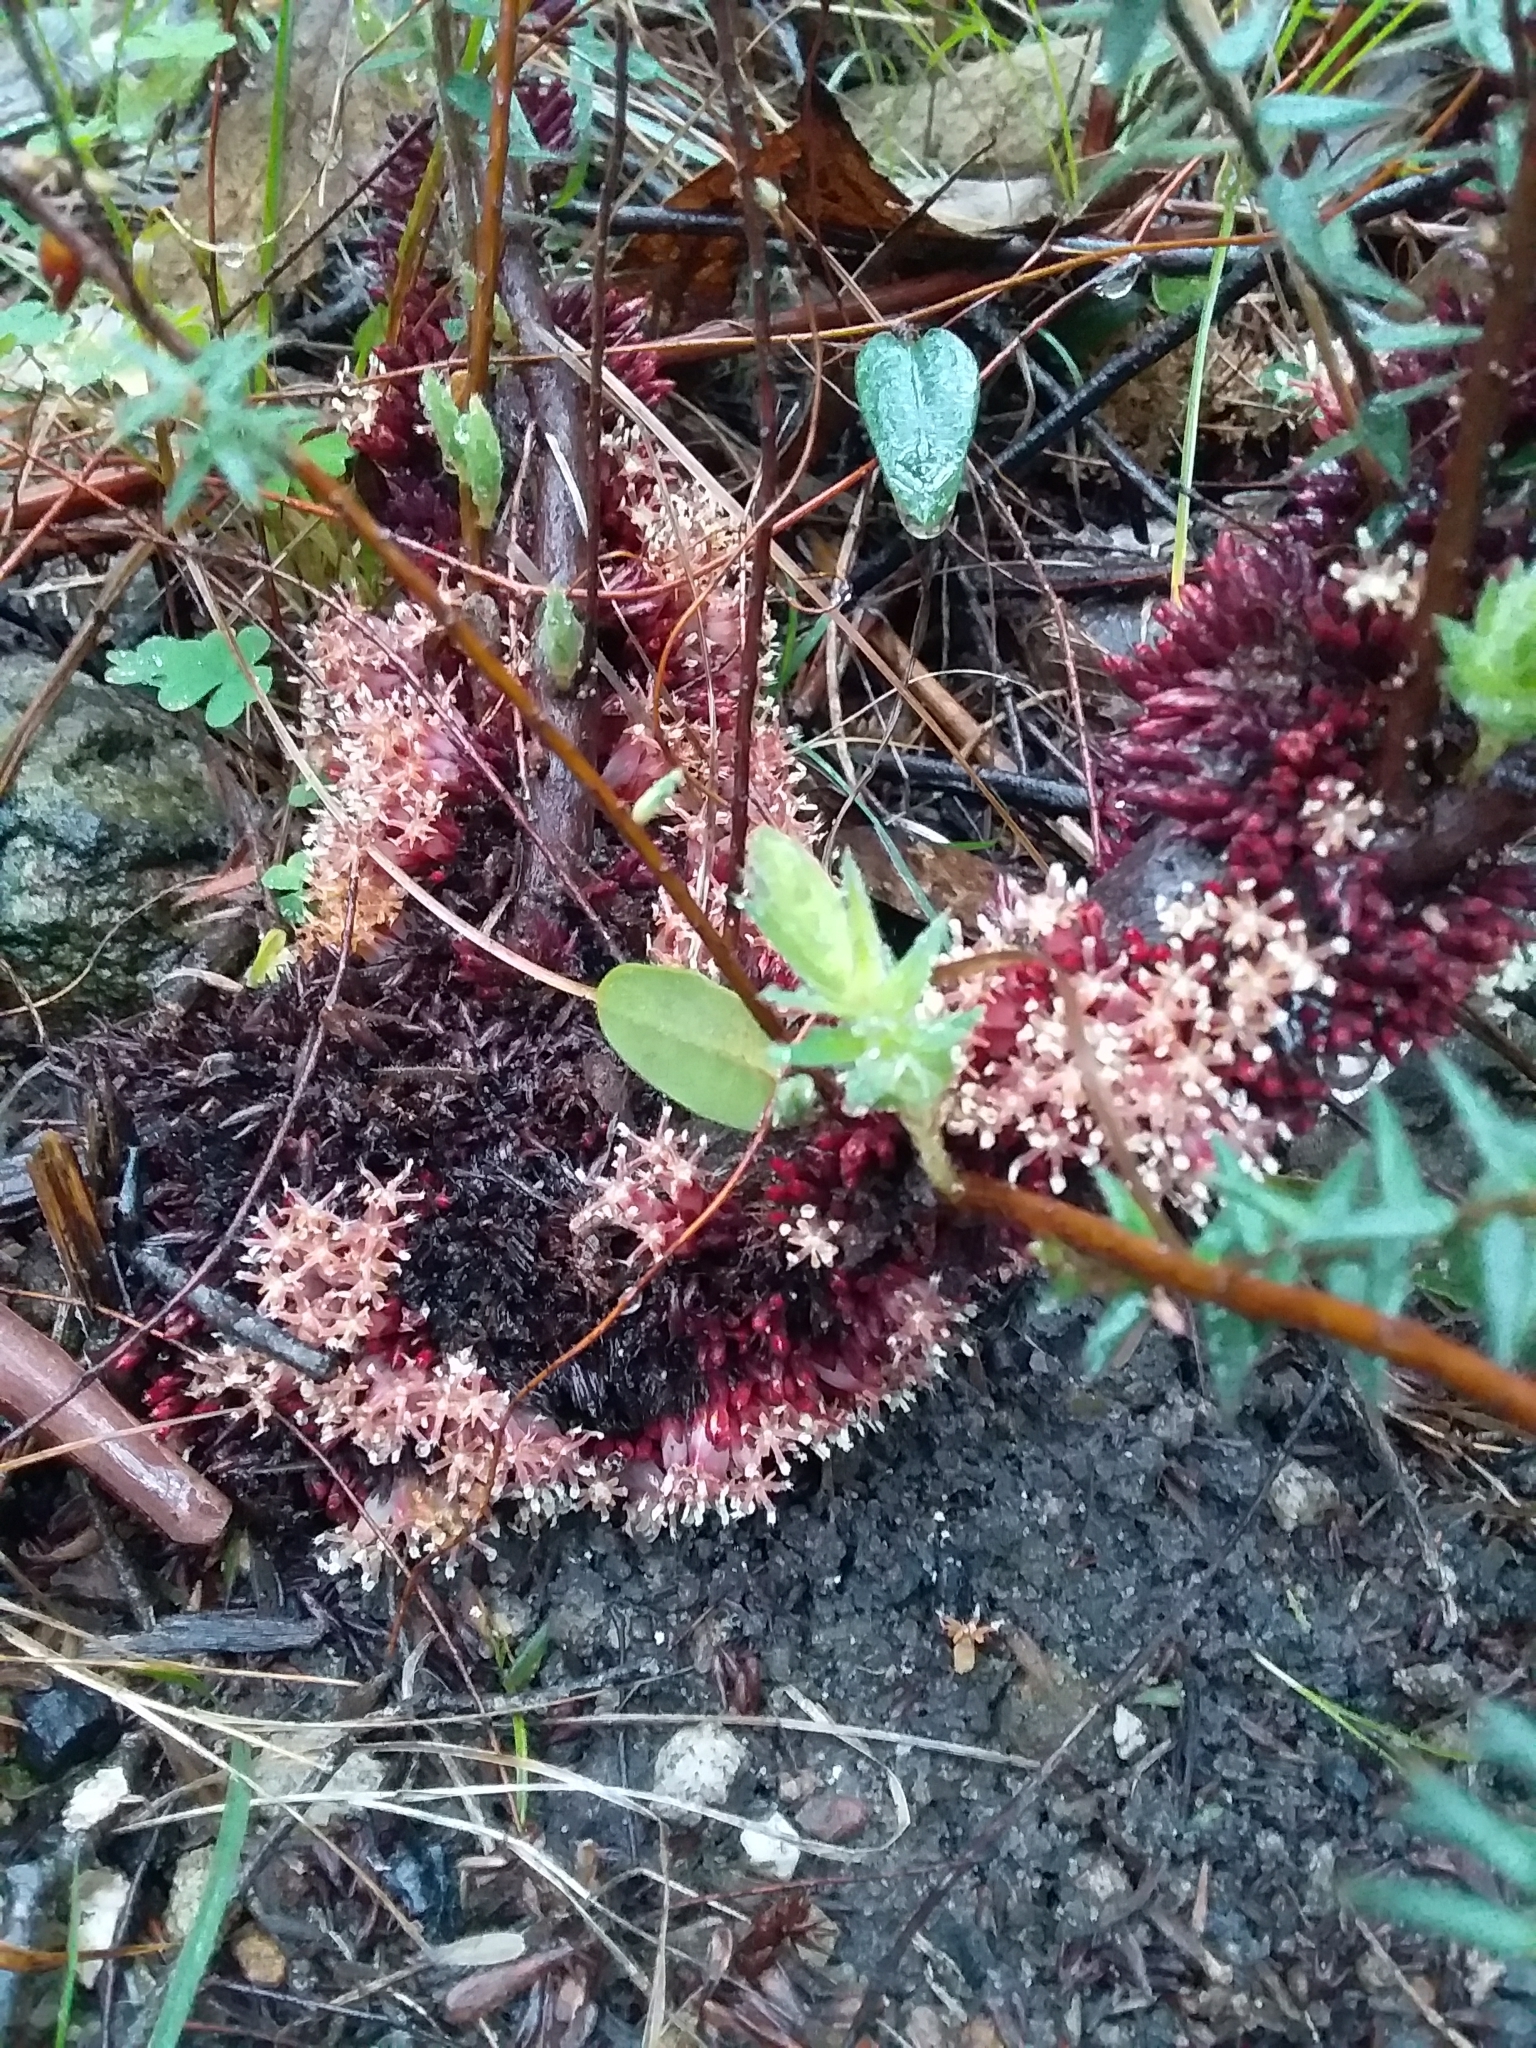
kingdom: Plantae
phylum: Tracheophyta
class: Magnoliopsida
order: Ericales
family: Ericaceae
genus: Acrotriche
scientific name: Acrotriche fasciculiflora
